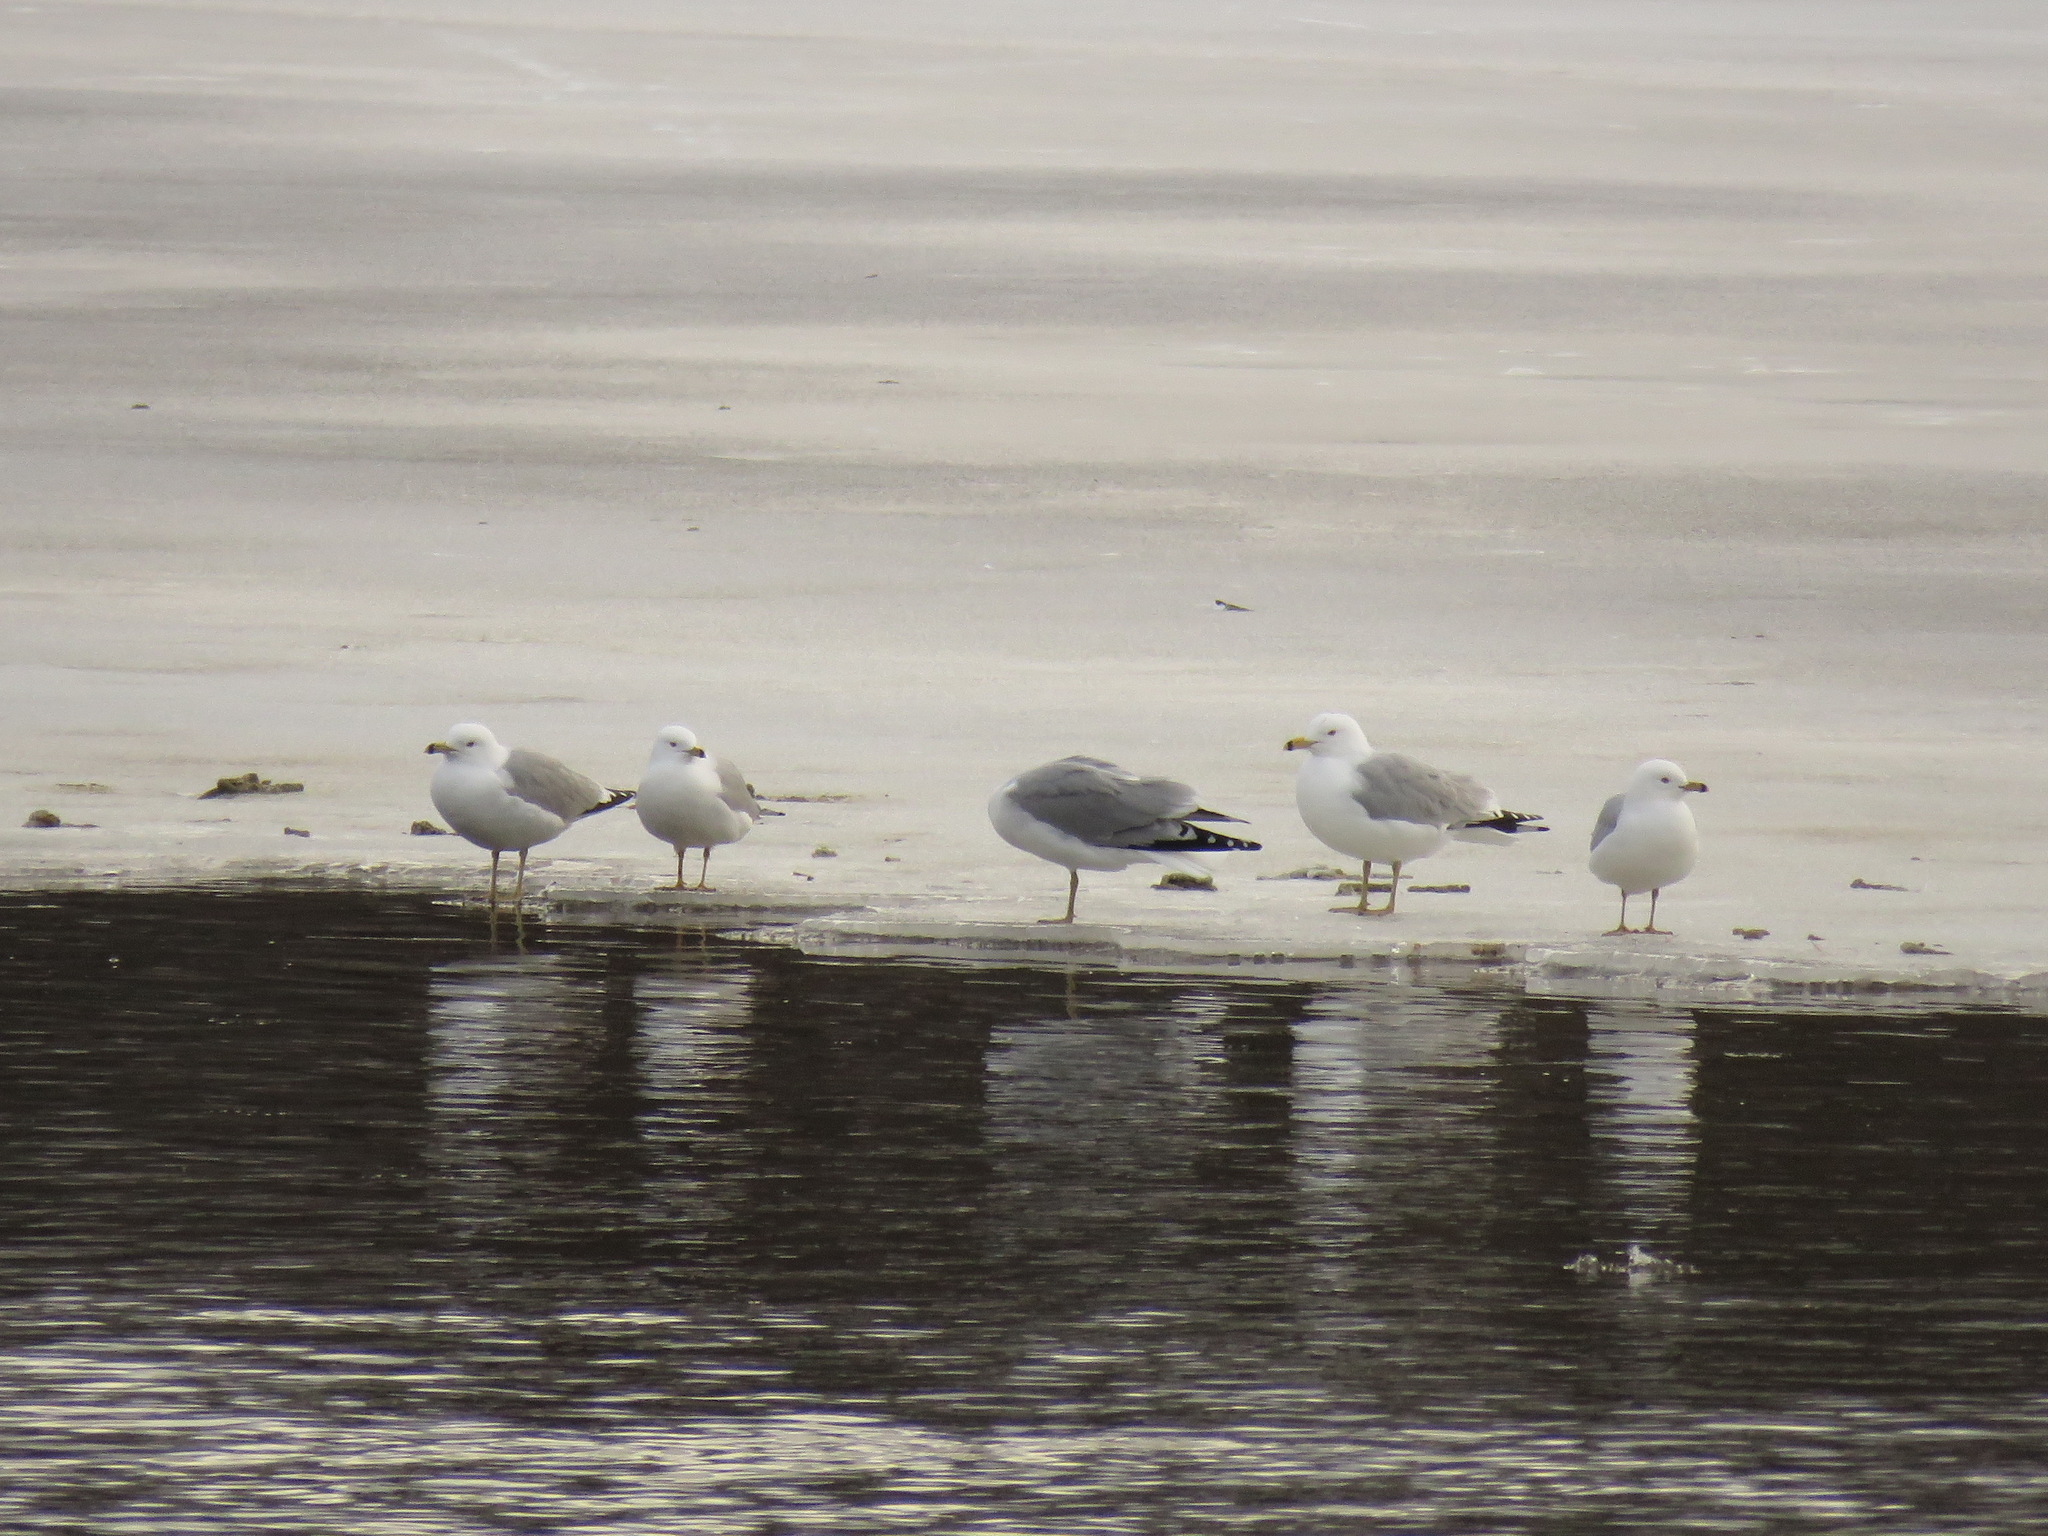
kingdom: Animalia
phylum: Chordata
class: Aves
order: Charadriiformes
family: Laridae
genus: Larus
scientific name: Larus delawarensis
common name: Ring-billed gull
